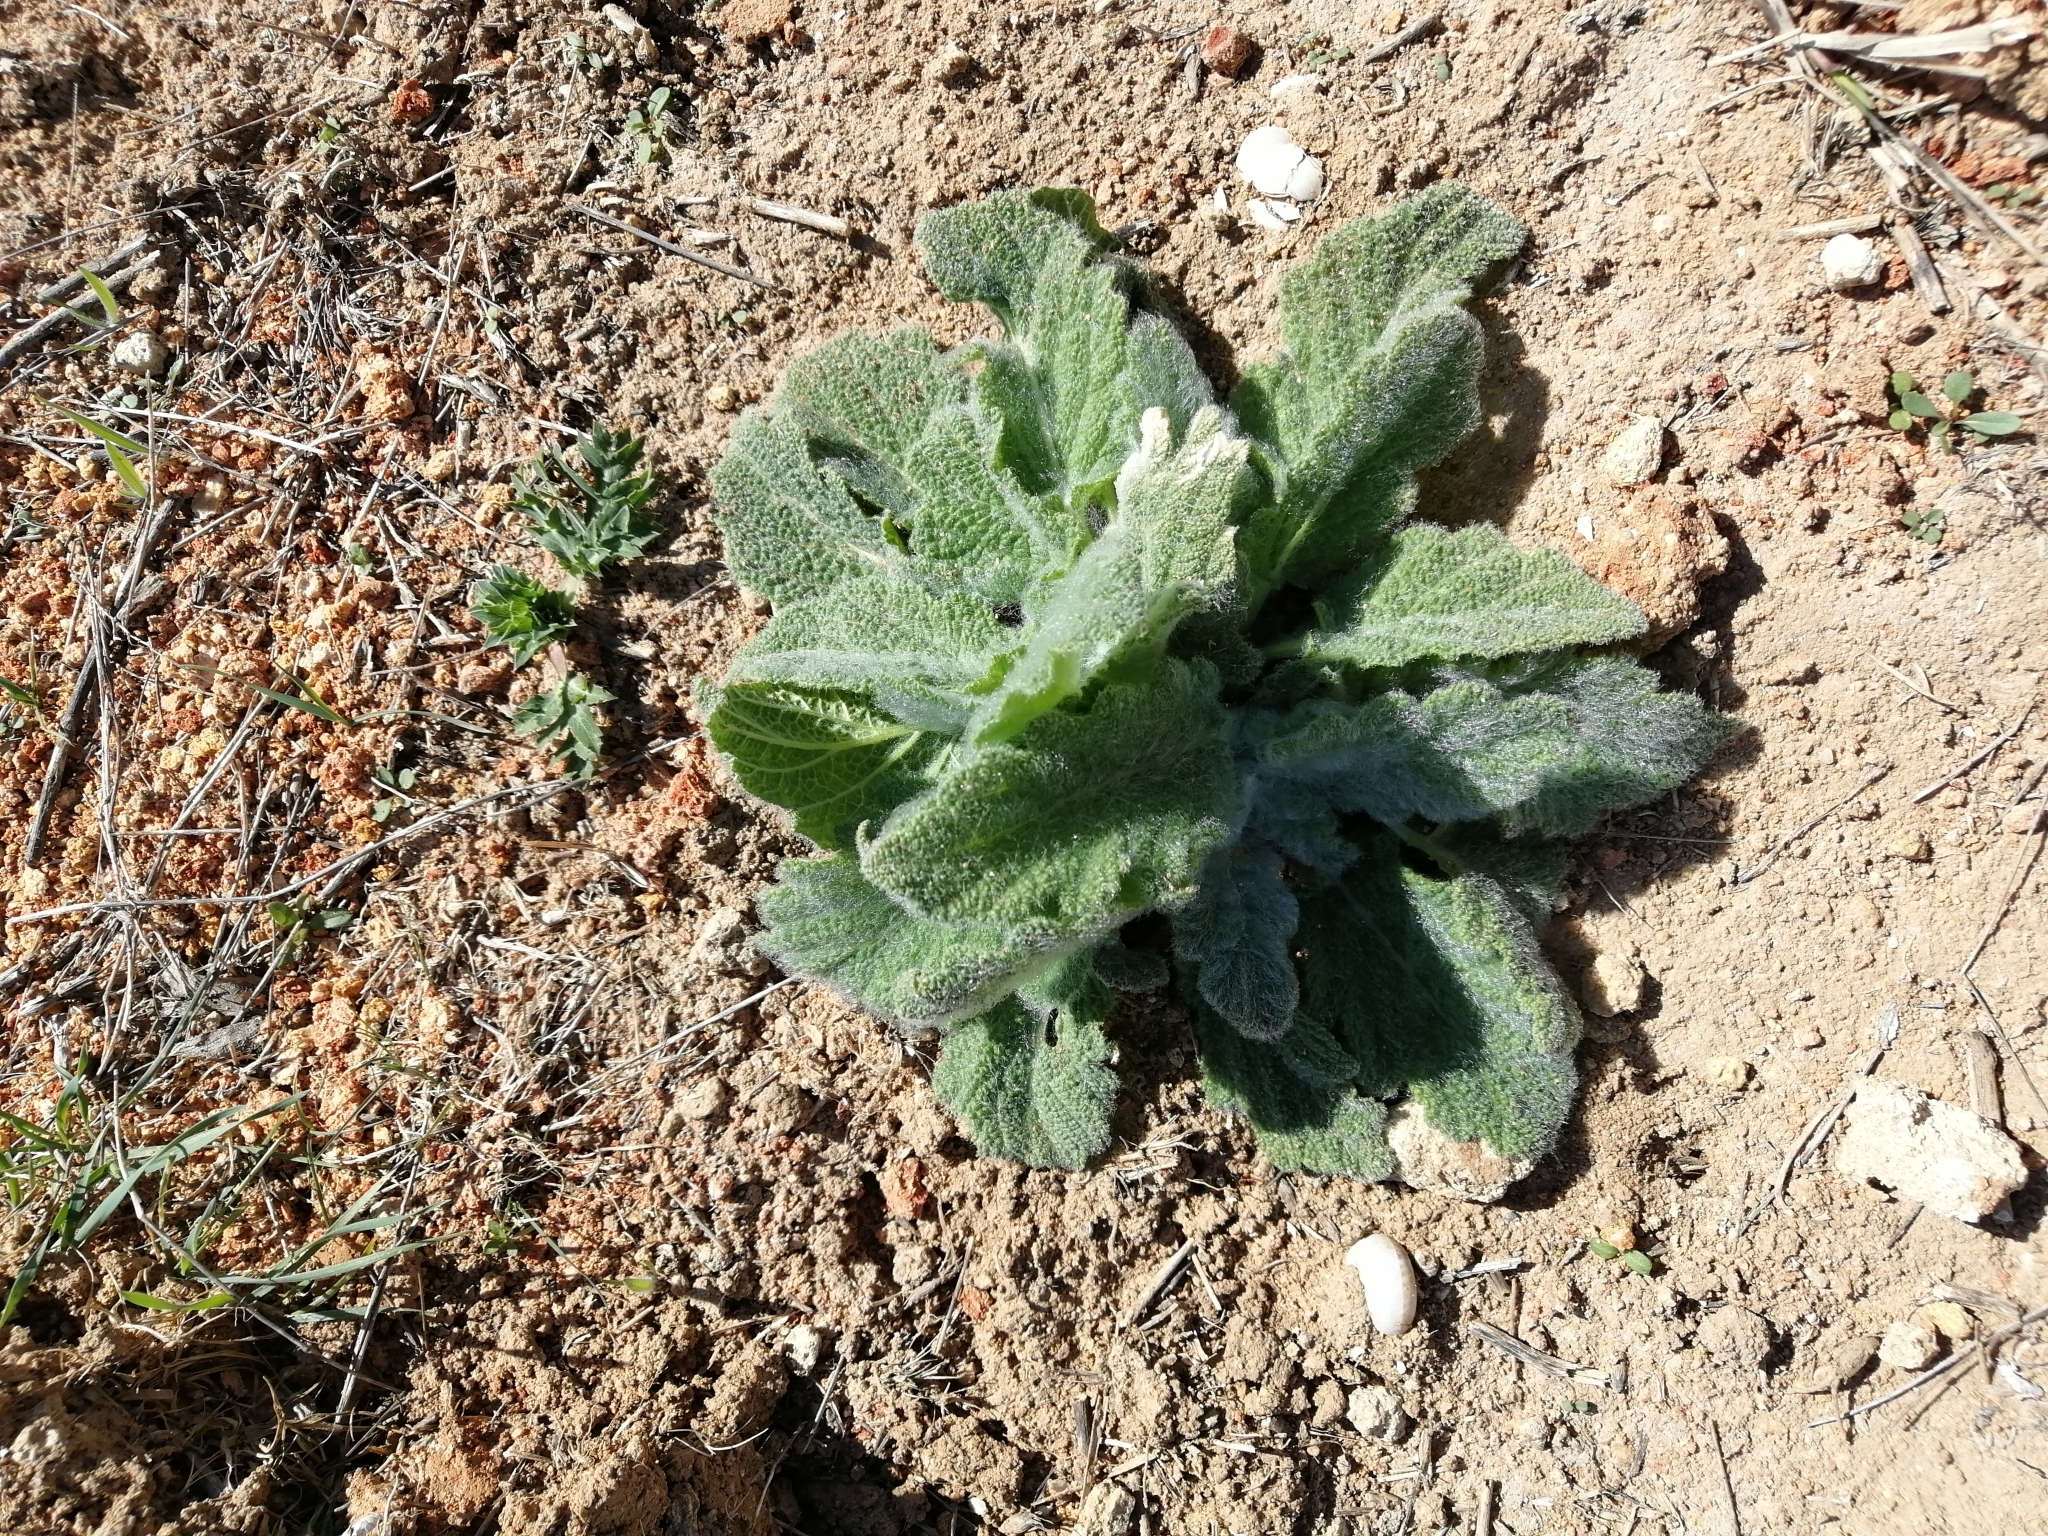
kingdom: Plantae
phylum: Tracheophyta
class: Magnoliopsida
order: Lamiales
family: Lamiaceae
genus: Salvia
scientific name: Salvia aethiopis
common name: Mediterranean sage
